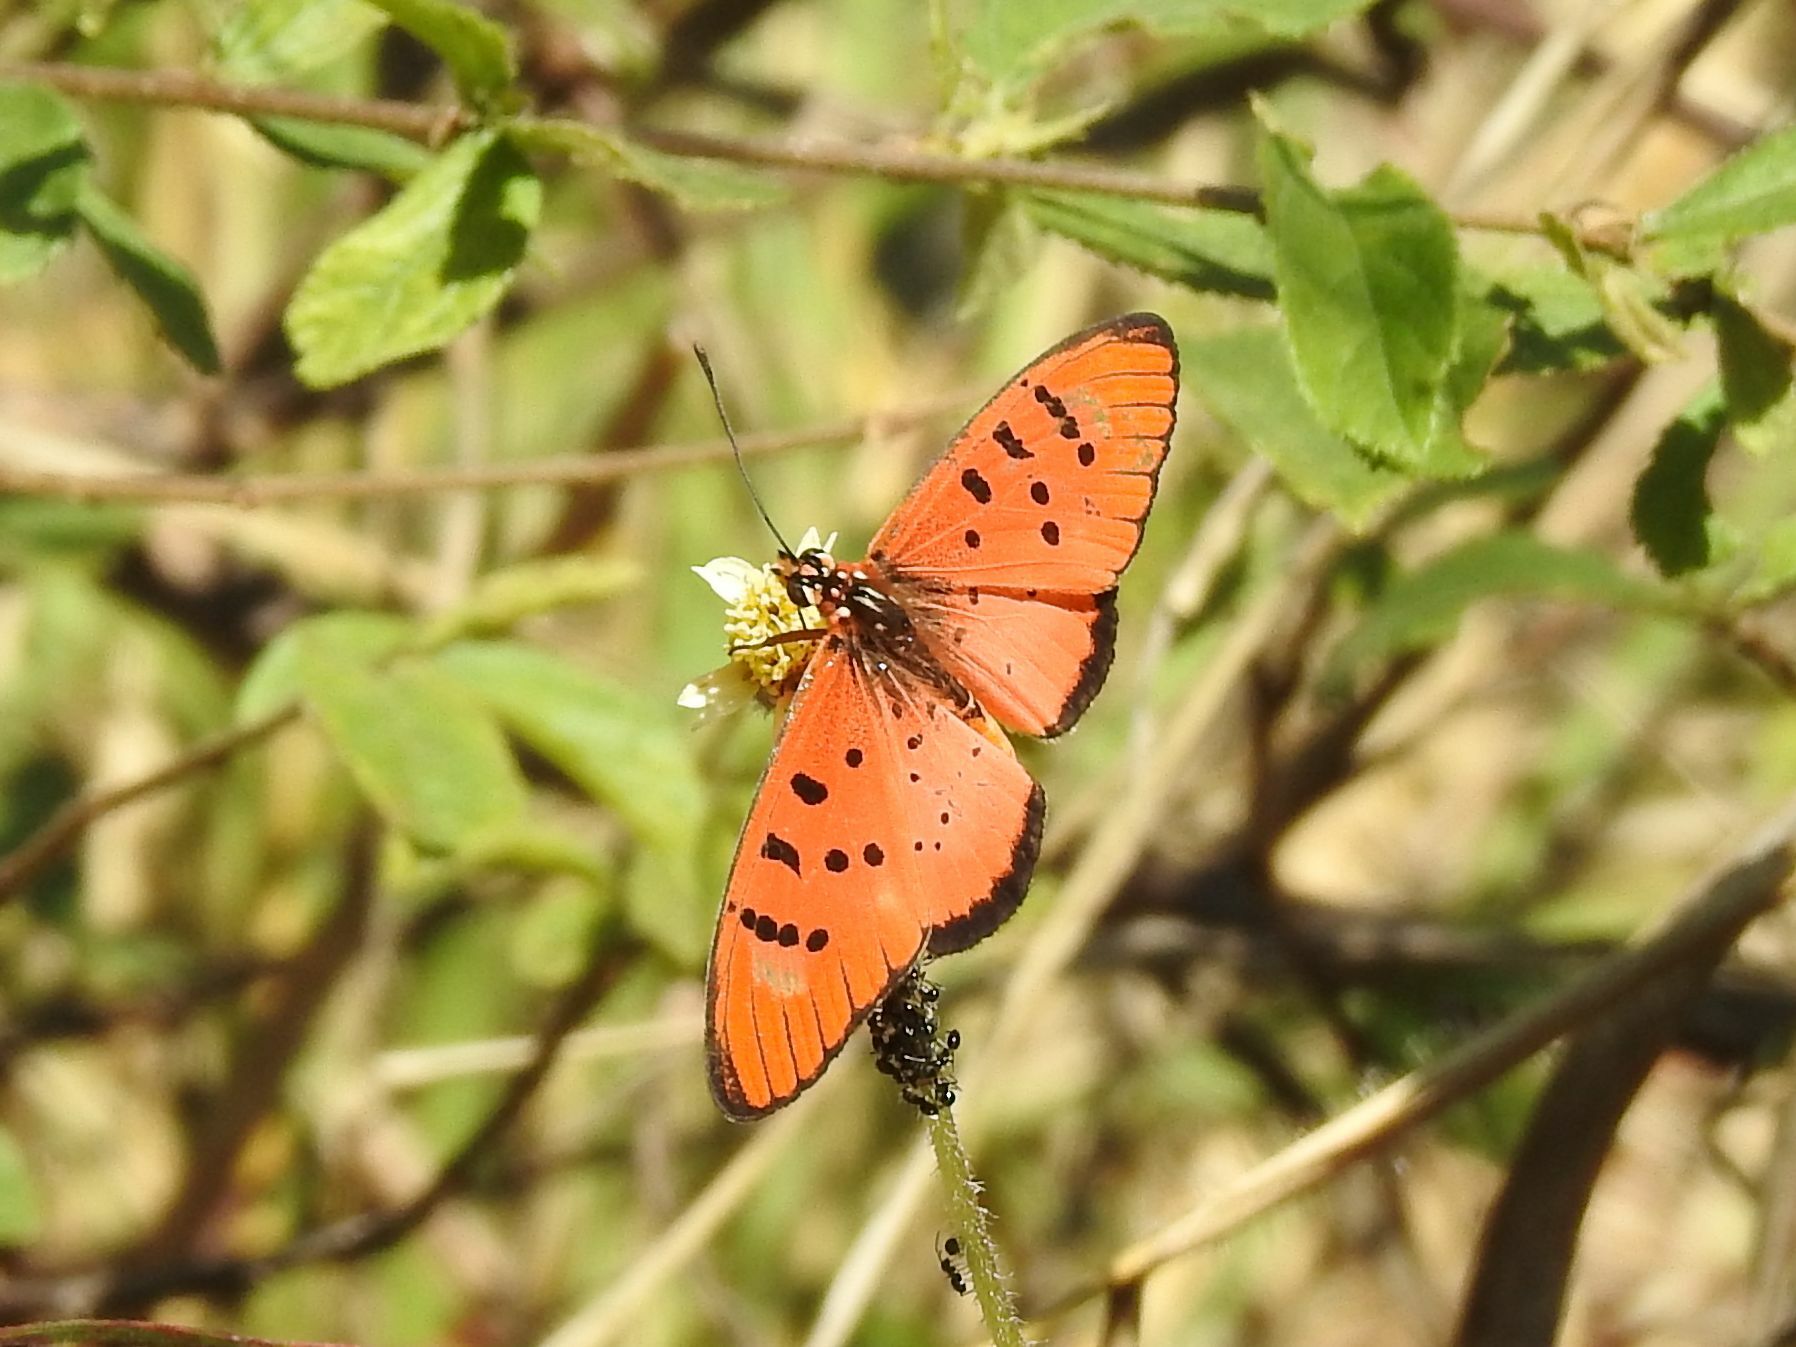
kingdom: Animalia
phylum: Arthropoda
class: Insecta
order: Lepidoptera
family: Nymphalidae
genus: Stephenia
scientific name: Stephenia
